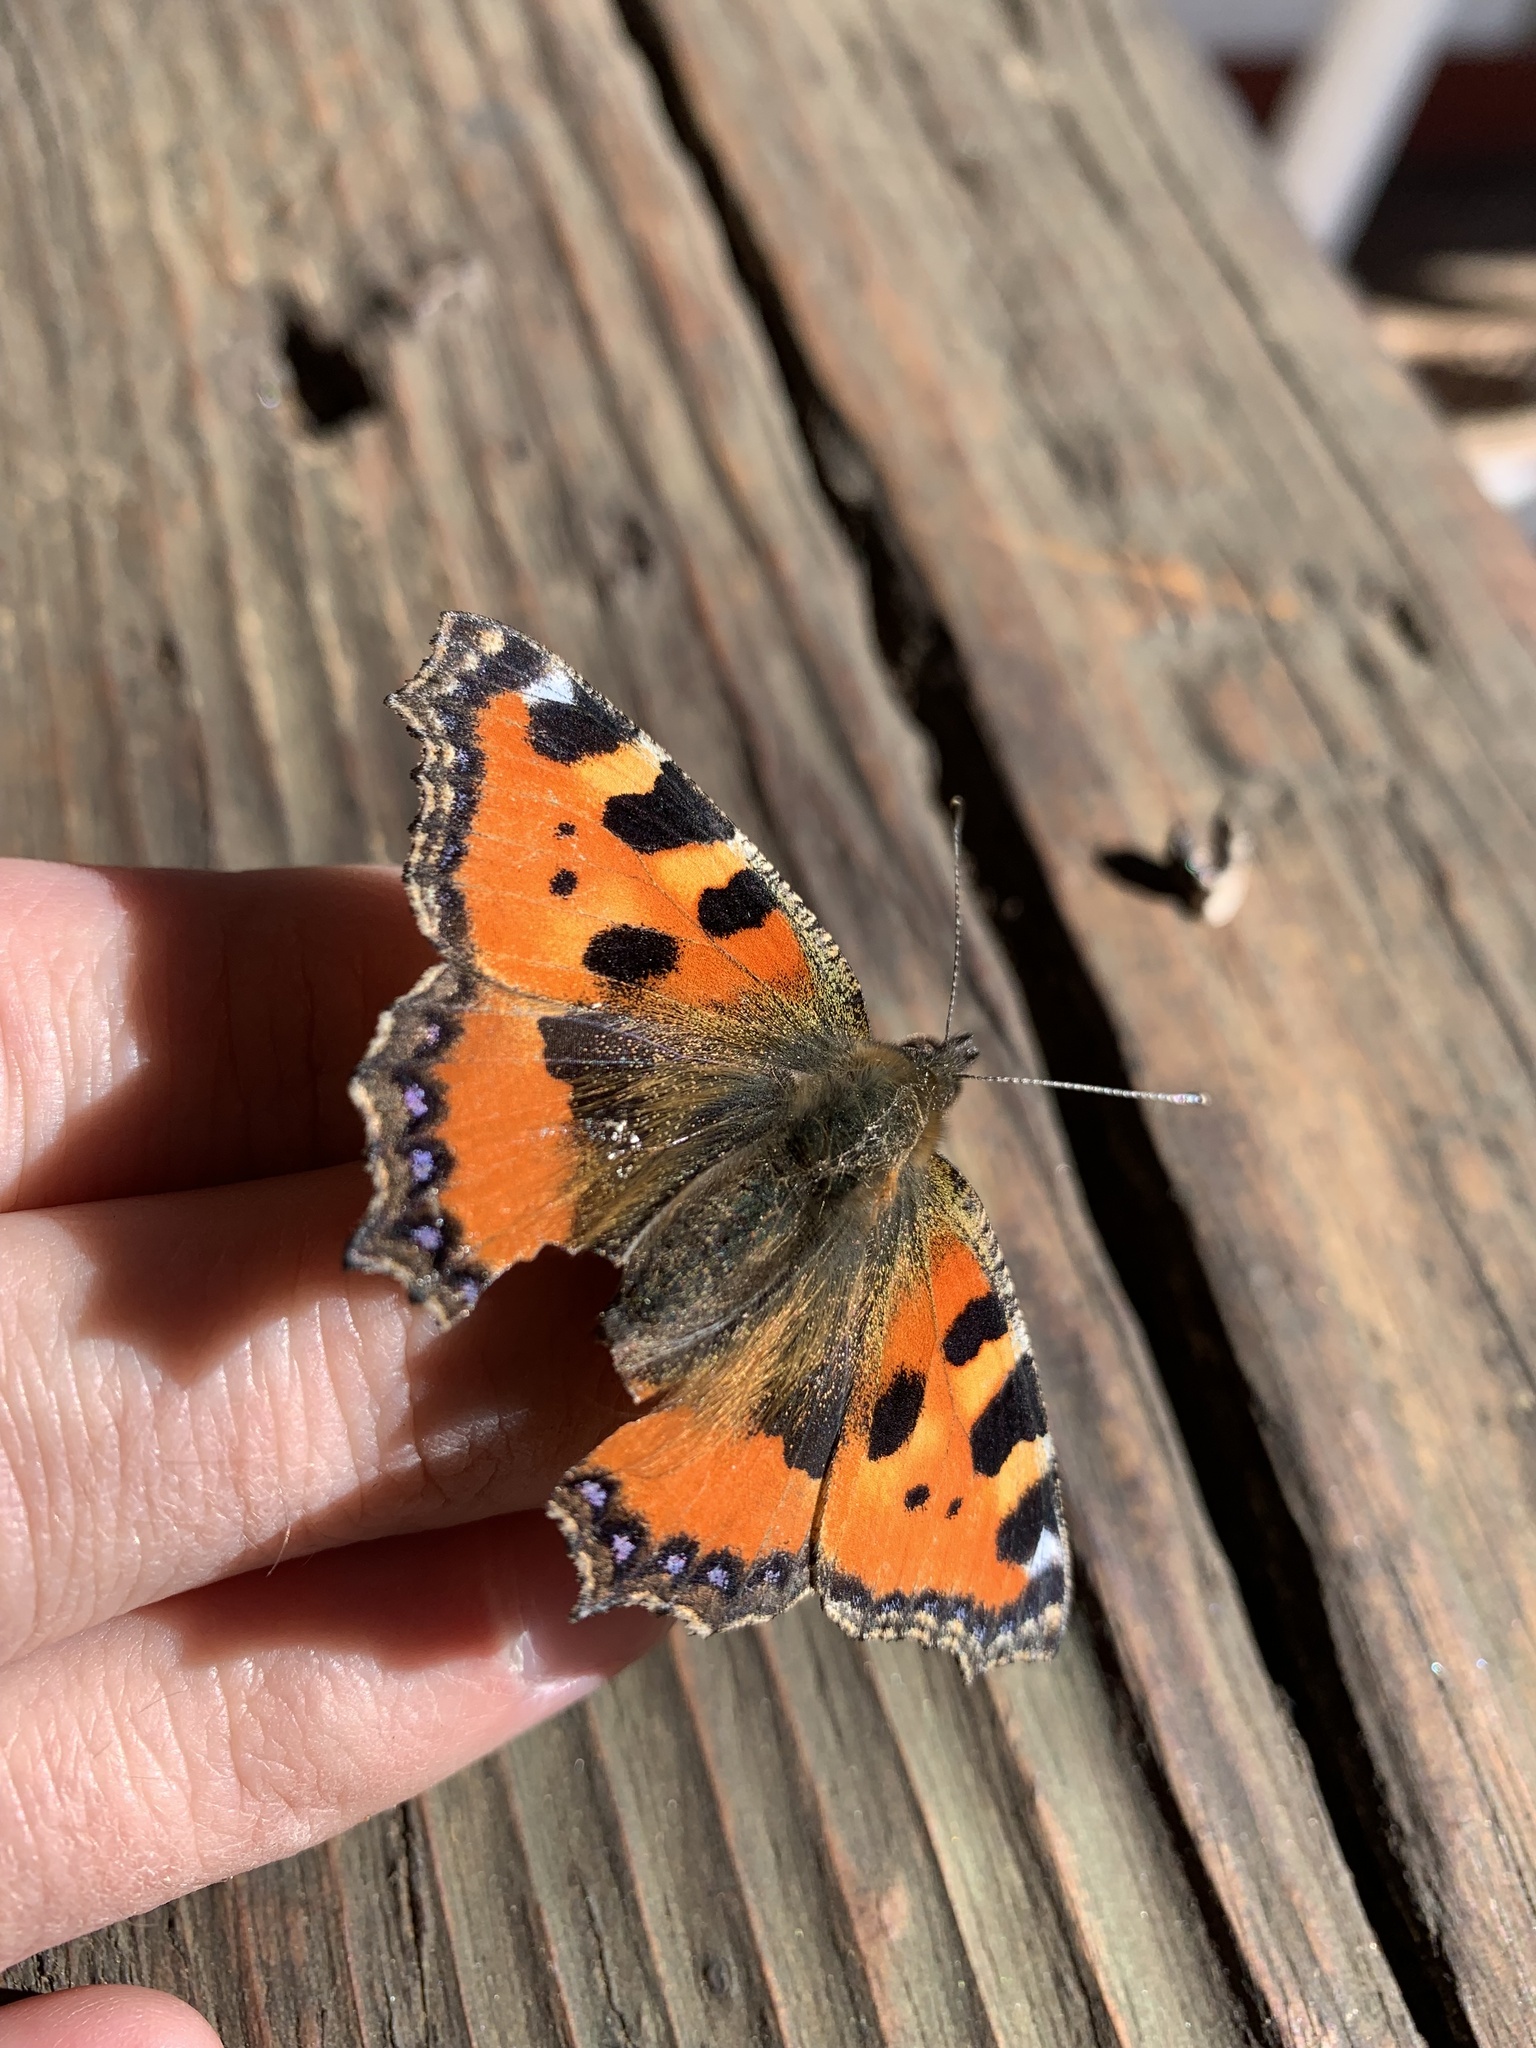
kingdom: Animalia
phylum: Arthropoda
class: Insecta
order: Lepidoptera
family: Nymphalidae
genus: Aglais
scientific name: Aglais urticae
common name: Small tortoiseshell
